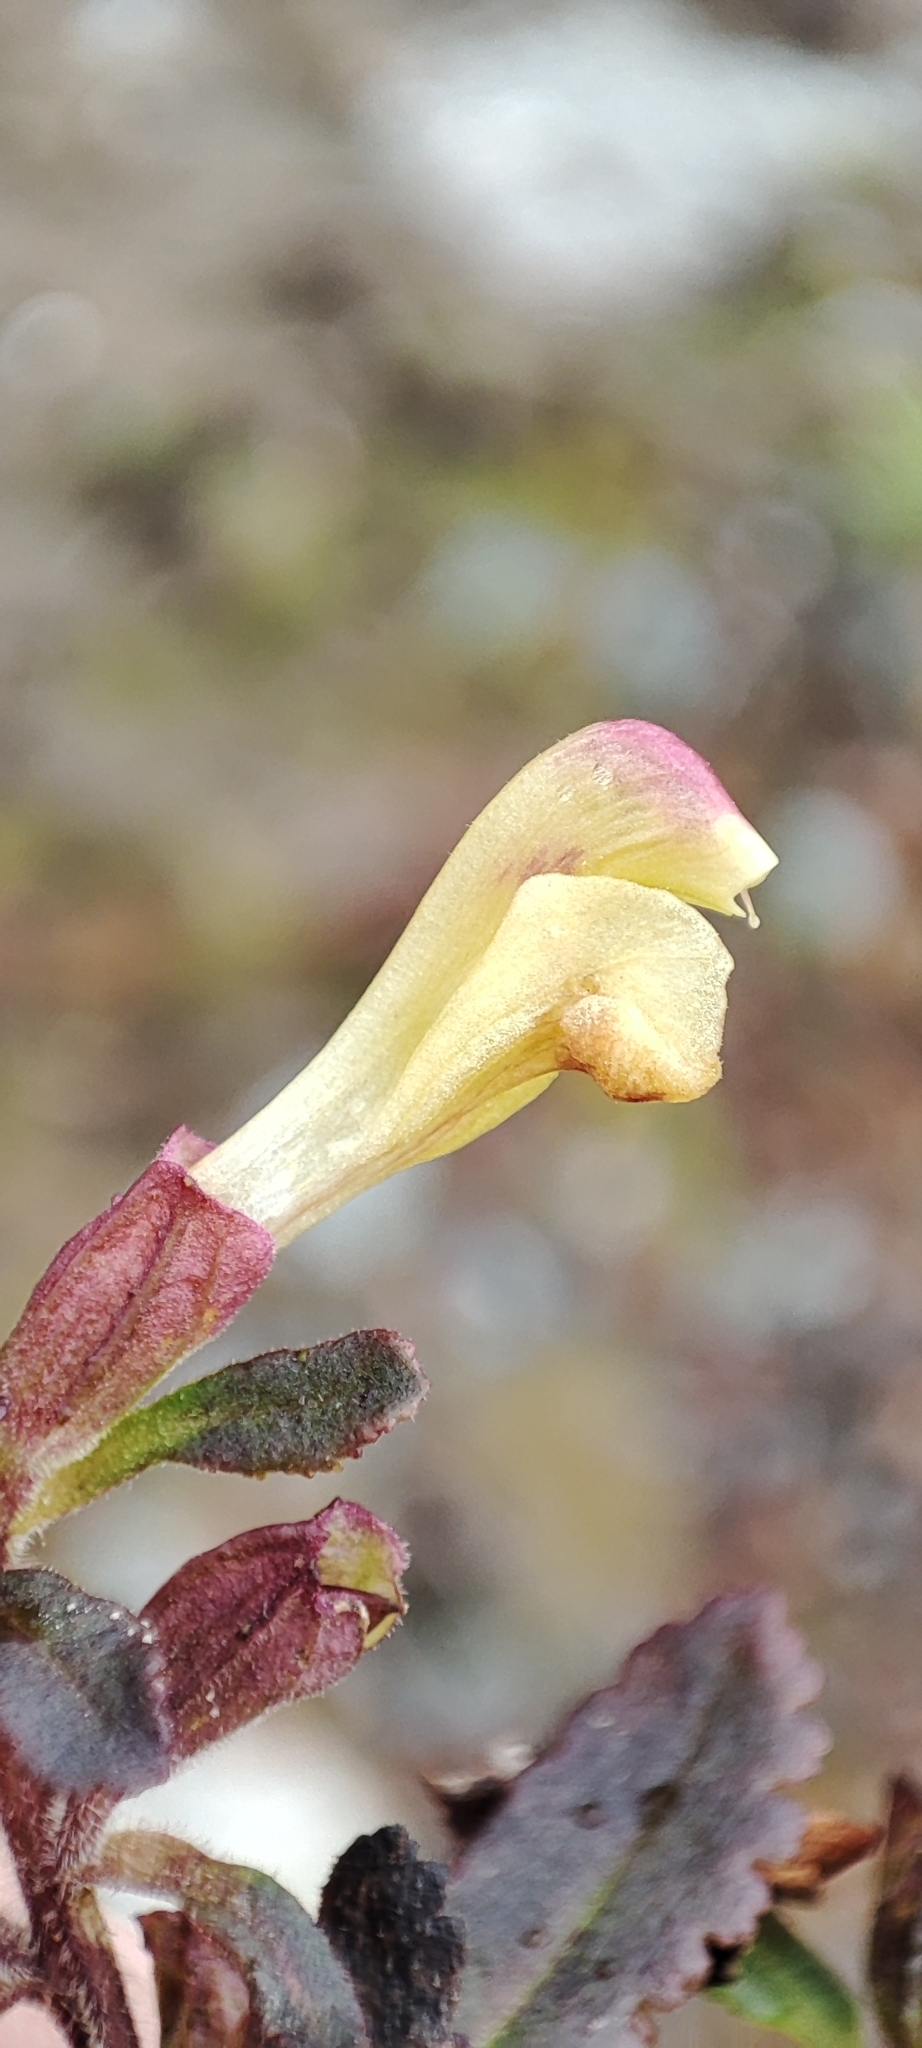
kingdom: Plantae
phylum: Tracheophyta
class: Magnoliopsida
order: Lamiales
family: Orobanchaceae
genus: Pedicularis
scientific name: Pedicularis labradorica
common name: Labrador lousewort
